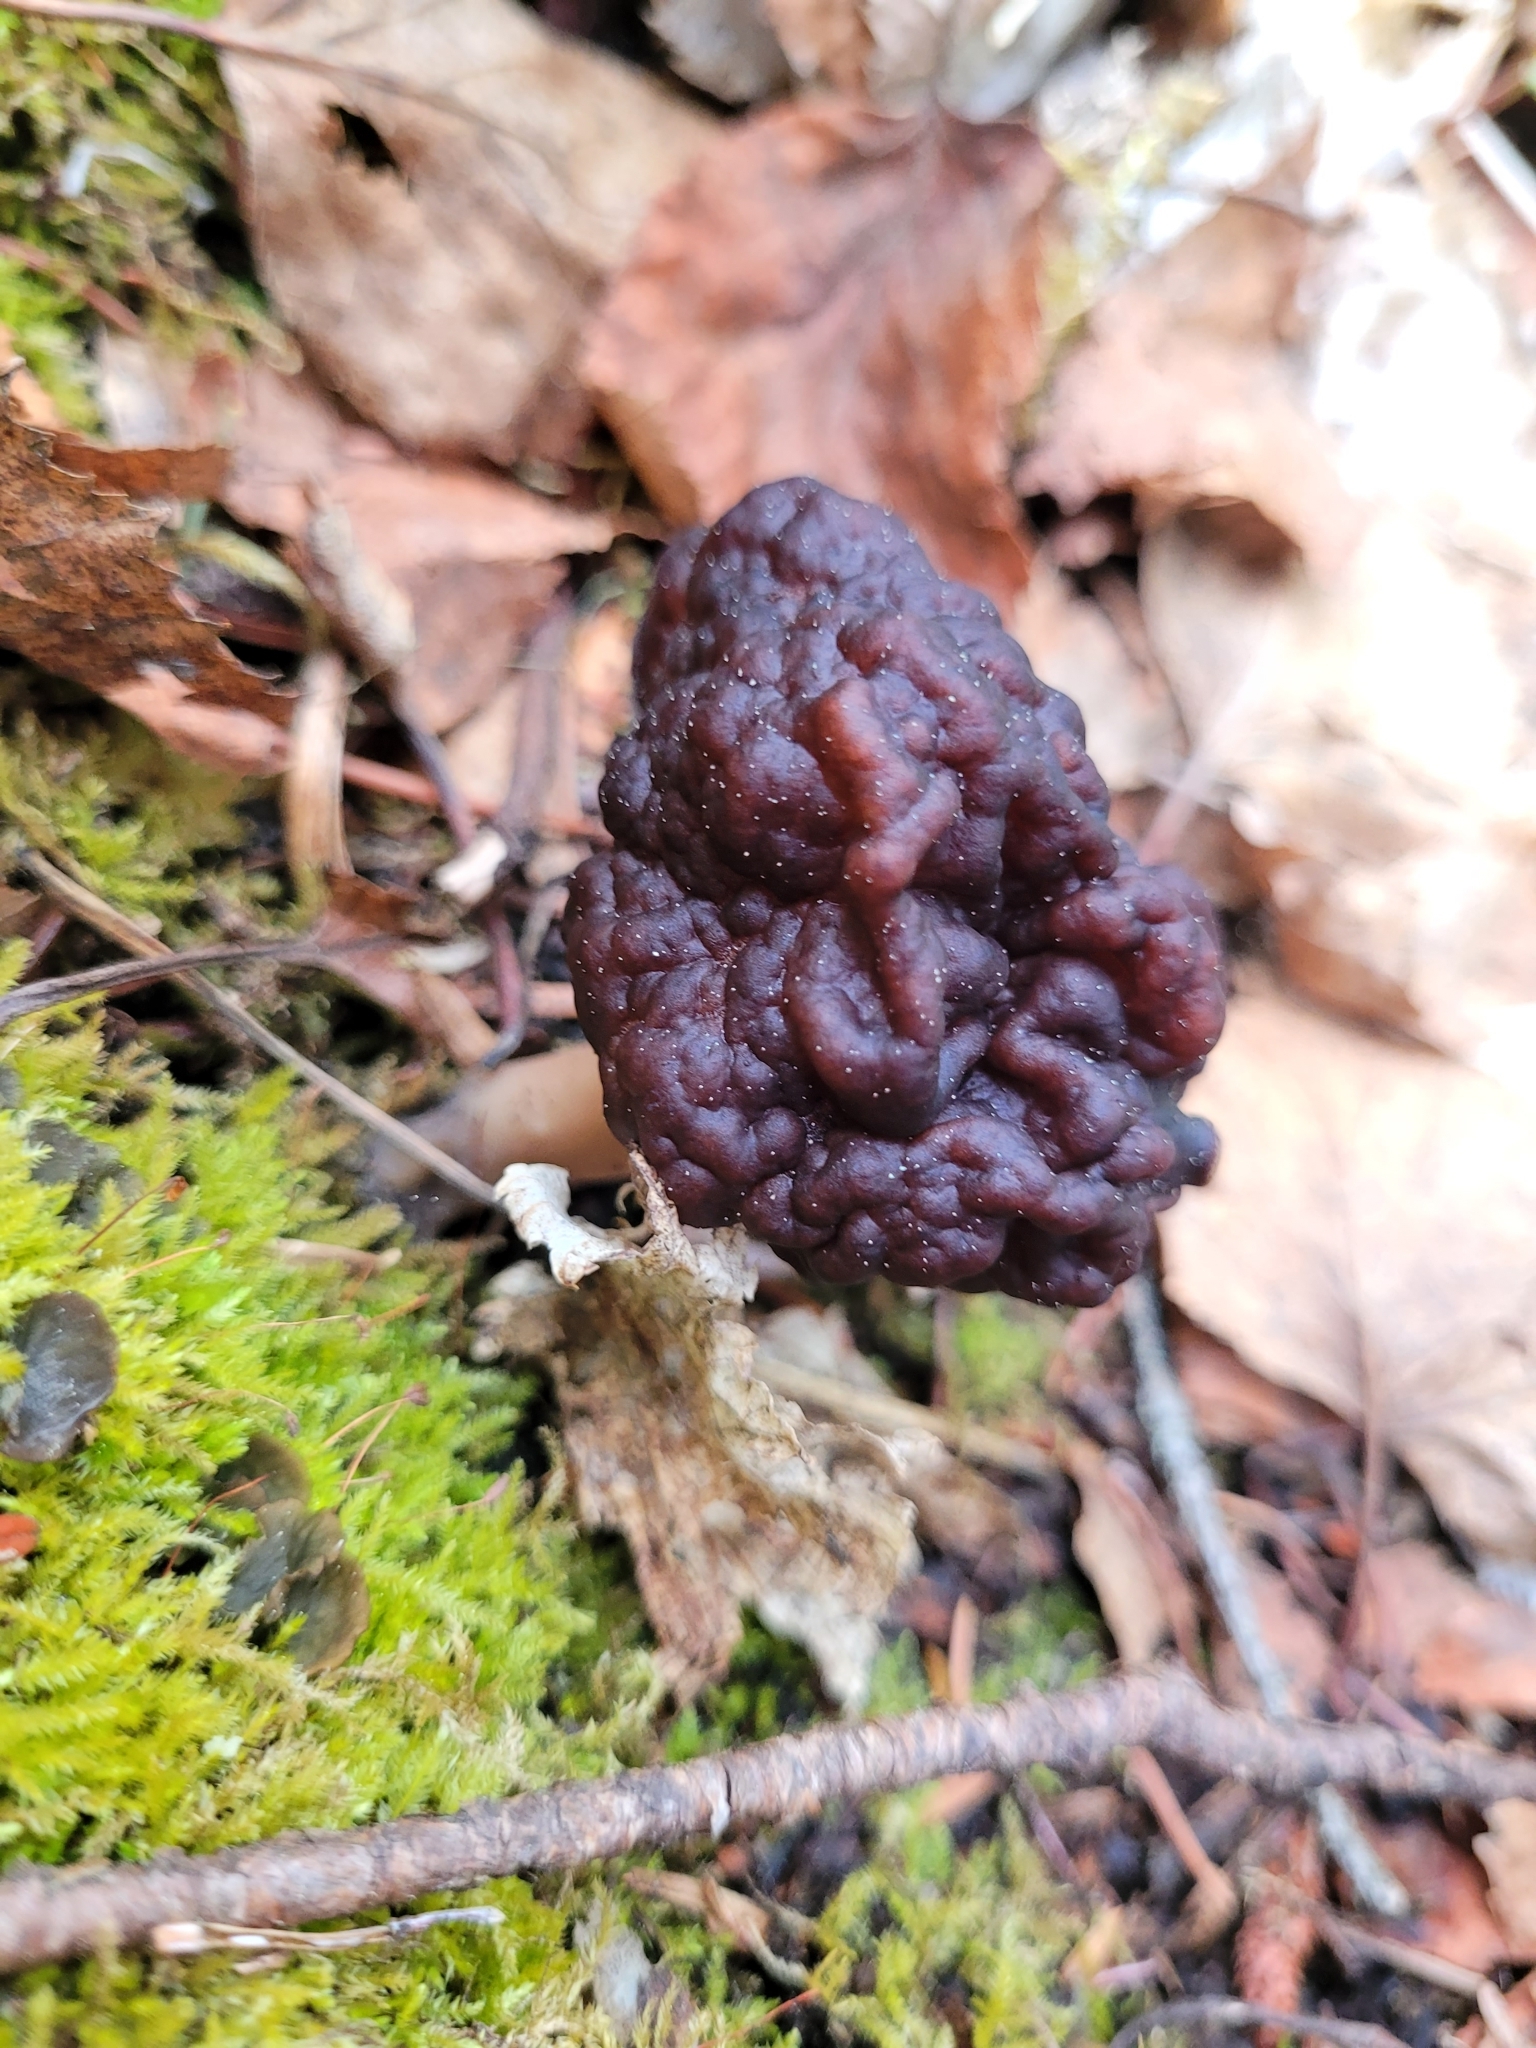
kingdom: Fungi
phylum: Ascomycota
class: Pezizomycetes
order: Pezizales
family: Discinaceae
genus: Gyromitra
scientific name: Gyromitra esculenta
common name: False morel
